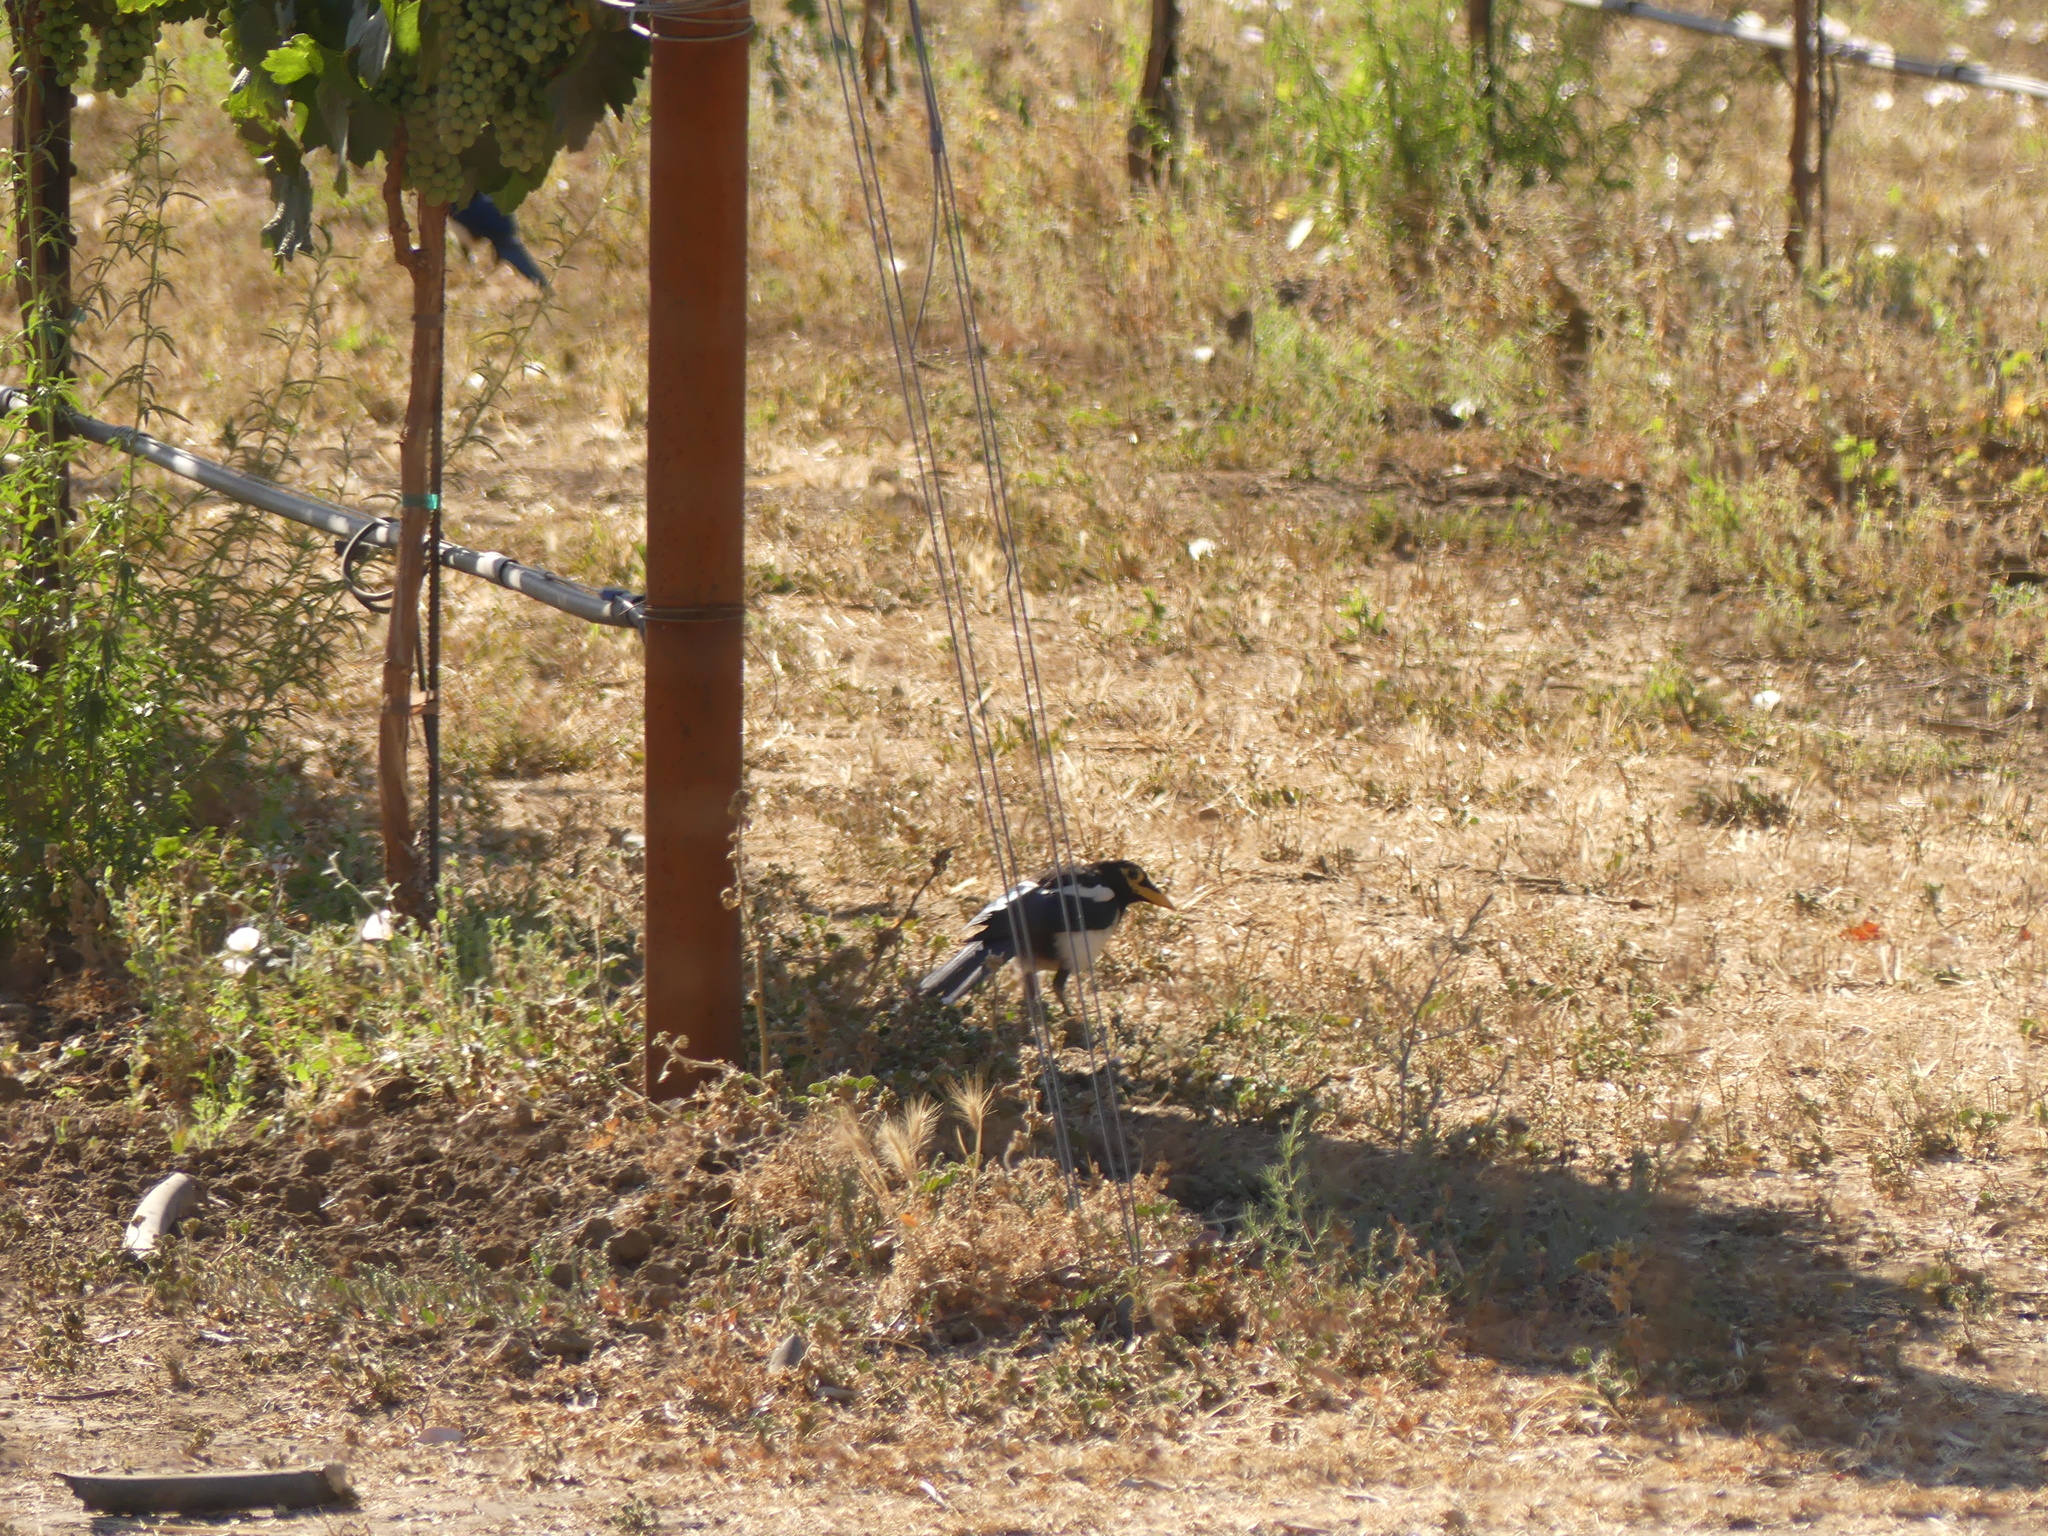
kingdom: Animalia
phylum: Chordata
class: Aves
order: Passeriformes
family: Corvidae
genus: Pica
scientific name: Pica nuttalli
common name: Yellow-billed magpie
